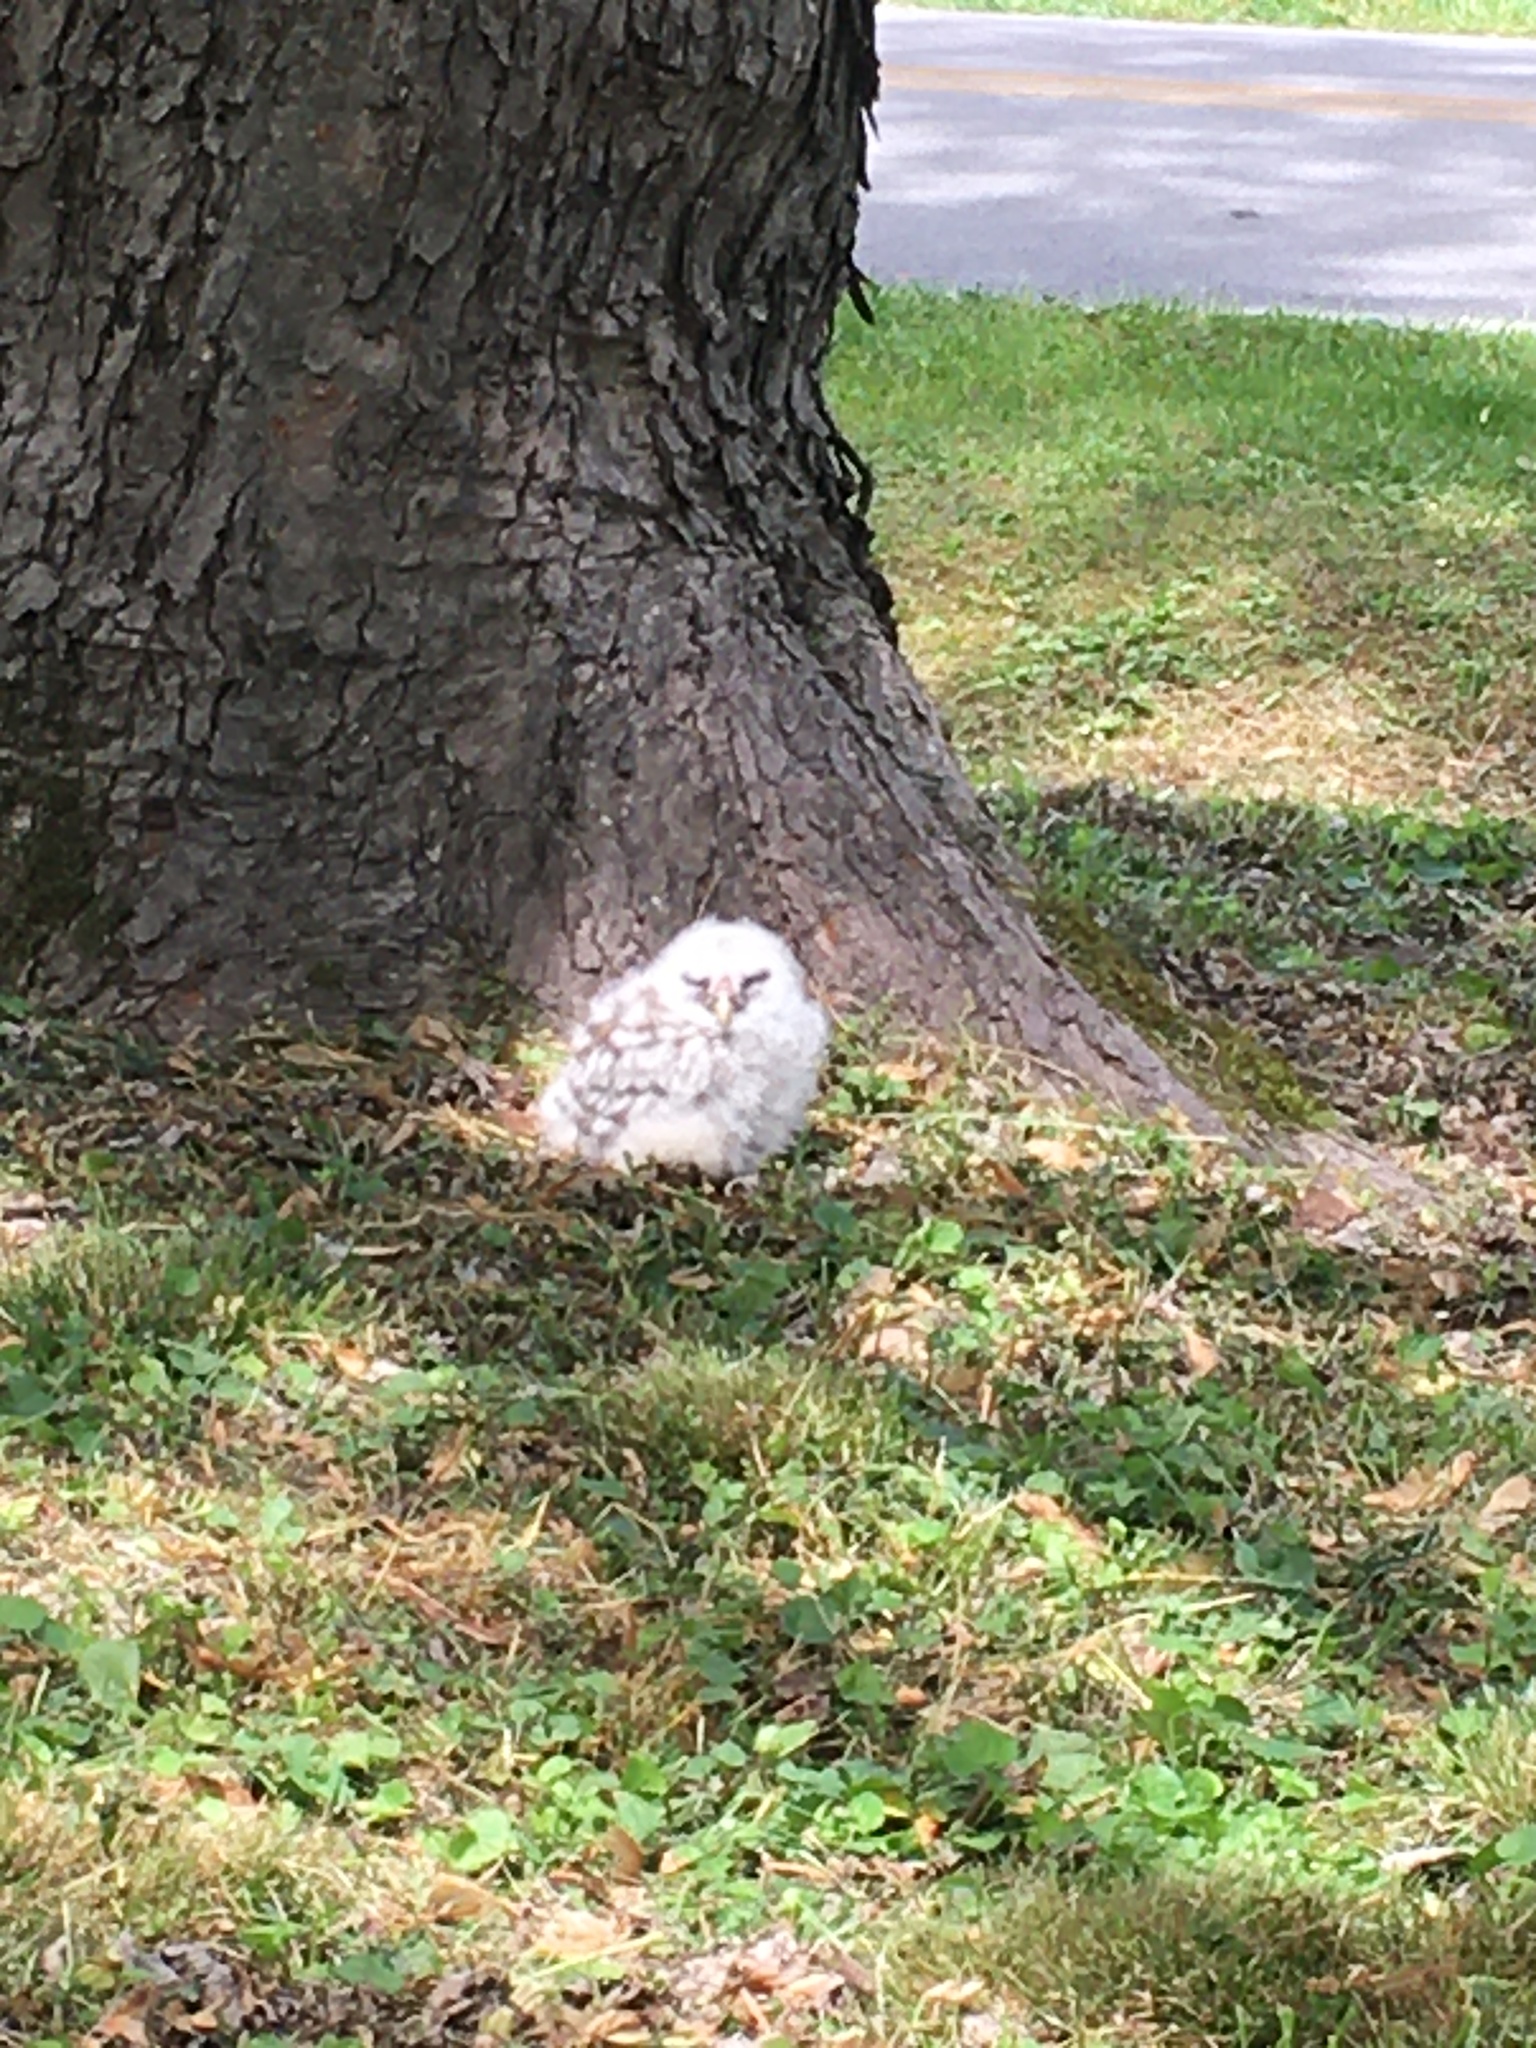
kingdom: Animalia
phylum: Chordata
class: Aves
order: Strigiformes
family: Strigidae
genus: Strix
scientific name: Strix varia
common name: Barred owl
